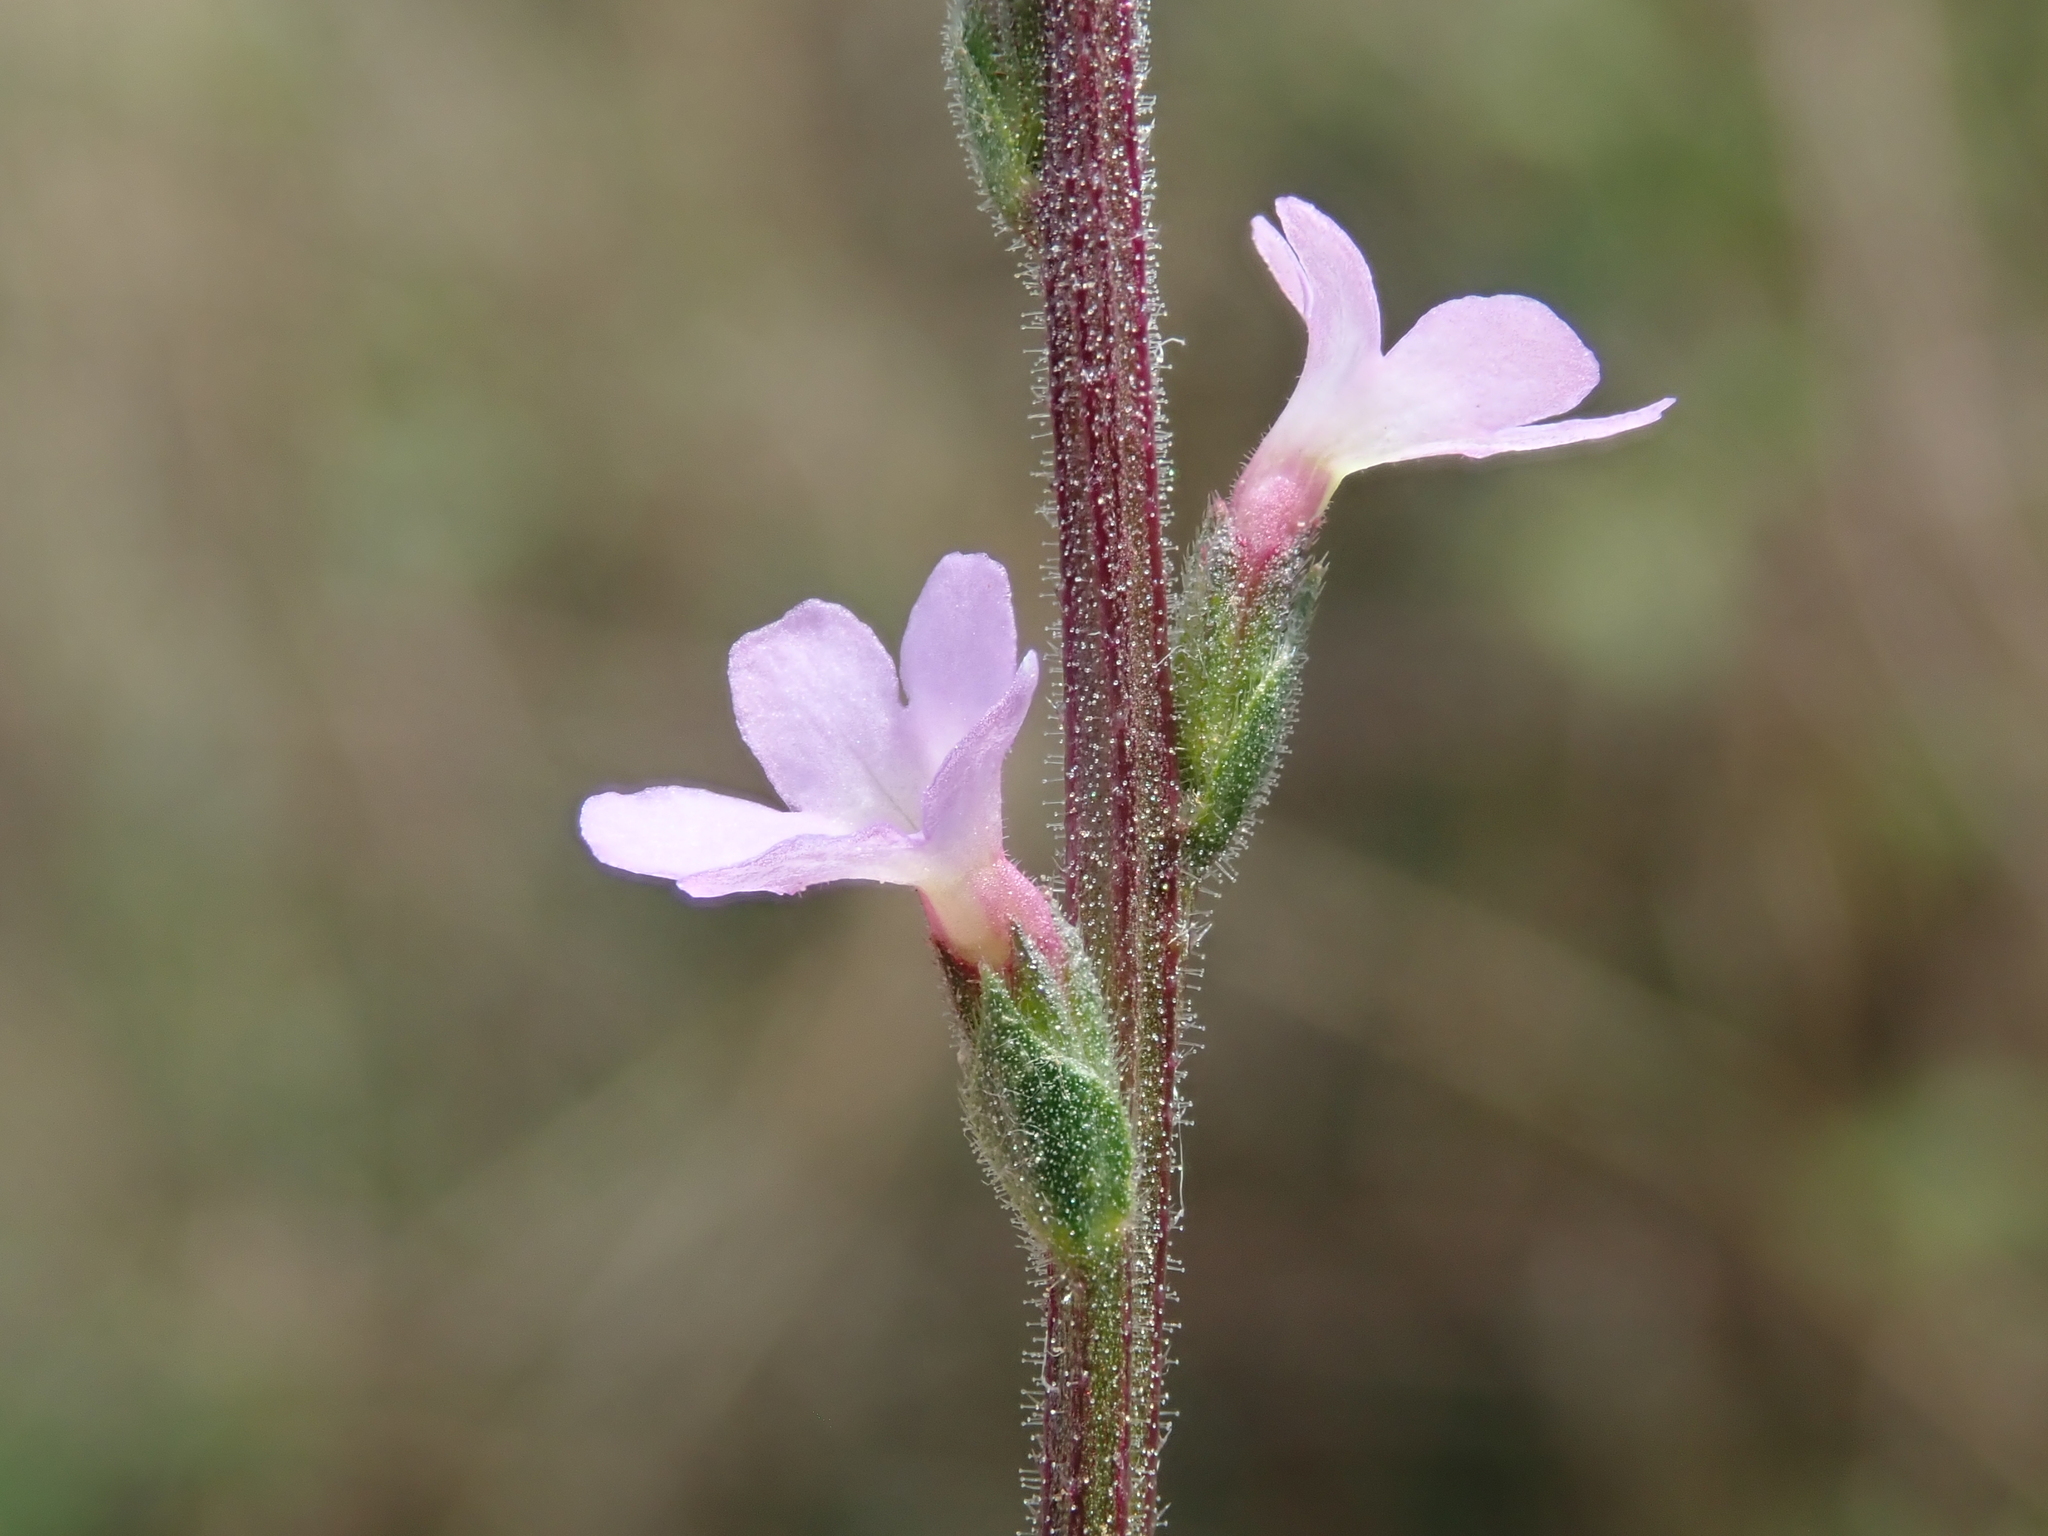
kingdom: Plantae
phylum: Tracheophyta
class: Magnoliopsida
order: Lamiales
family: Verbenaceae
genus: Verbena
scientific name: Verbena officinalis
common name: Vervain
